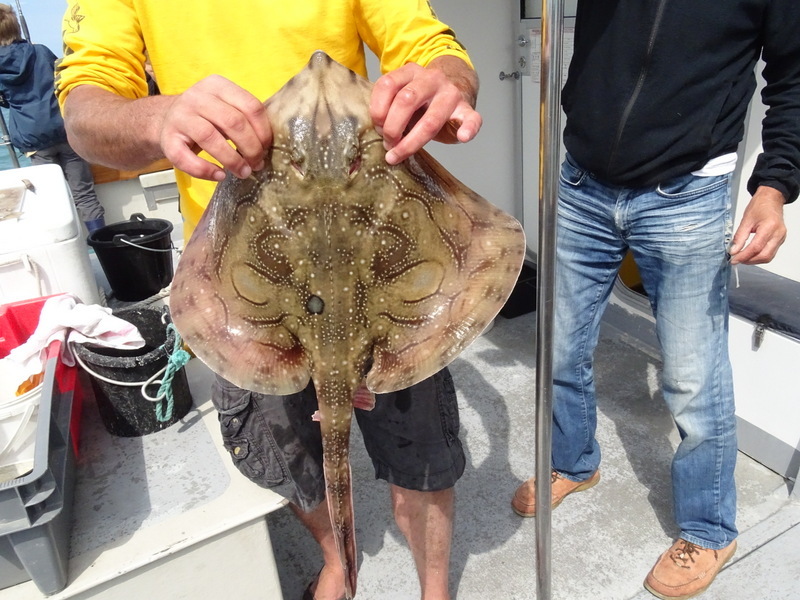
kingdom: Animalia
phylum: Chordata
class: Elasmobranchii
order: Rajiformes
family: Rajidae
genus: Raja
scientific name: Raja undulata
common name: Undulate ray
